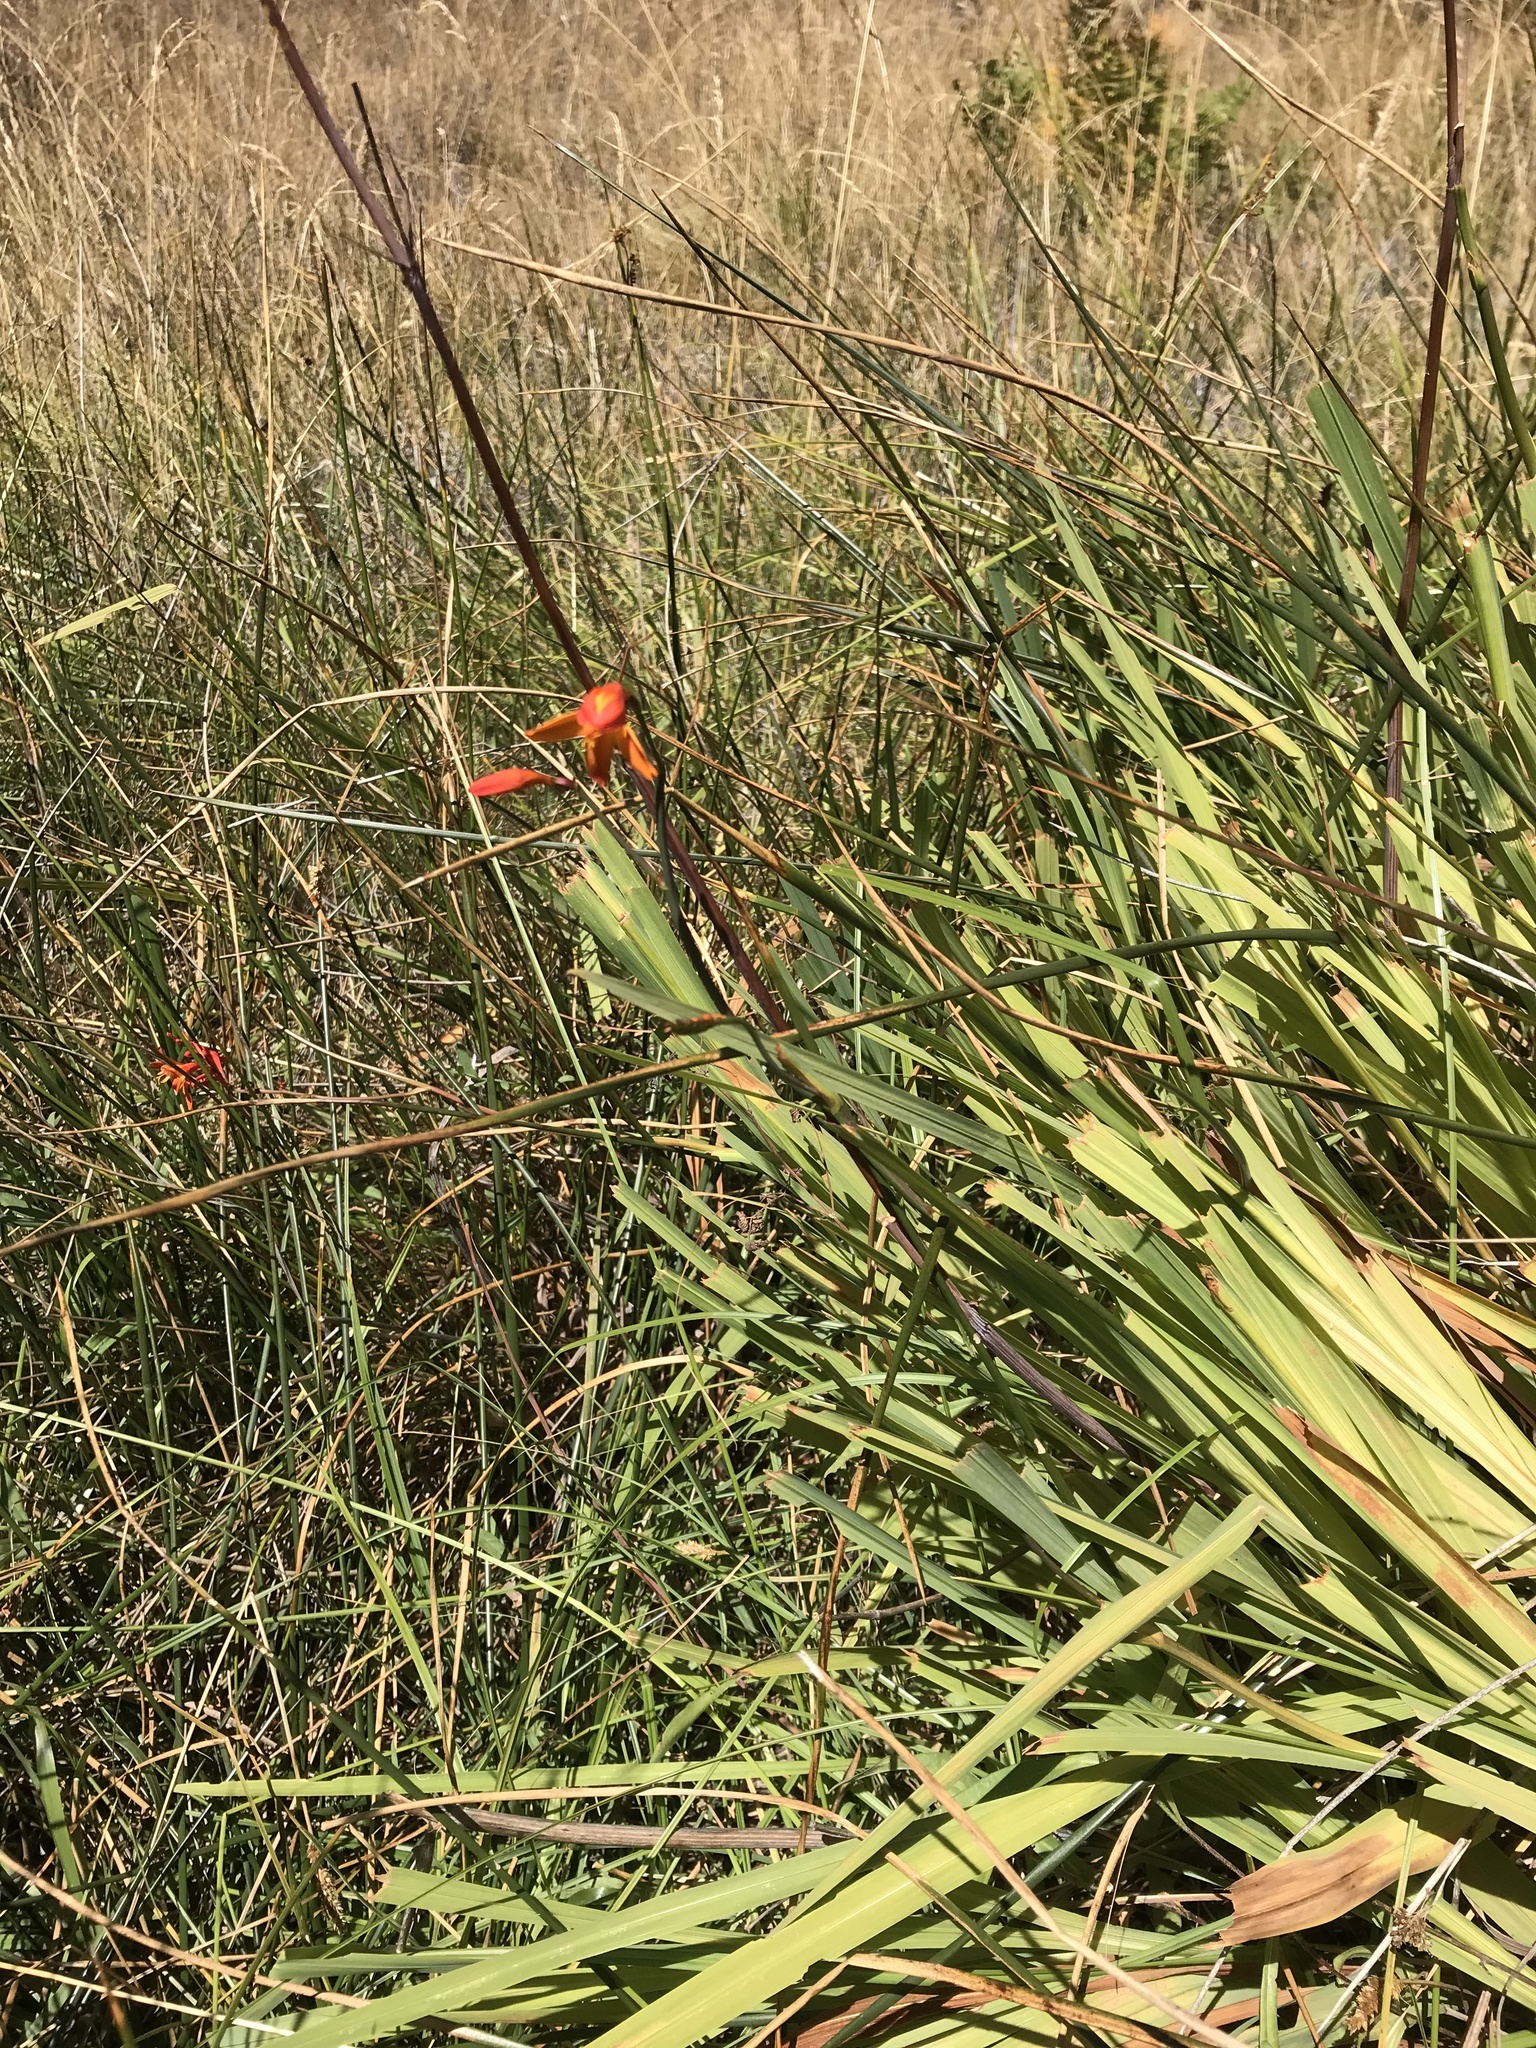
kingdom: Plantae
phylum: Tracheophyta
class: Liliopsida
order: Asparagales
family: Iridaceae
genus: Crocosmia
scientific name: Crocosmia crocosmiiflora
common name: Montbretia
